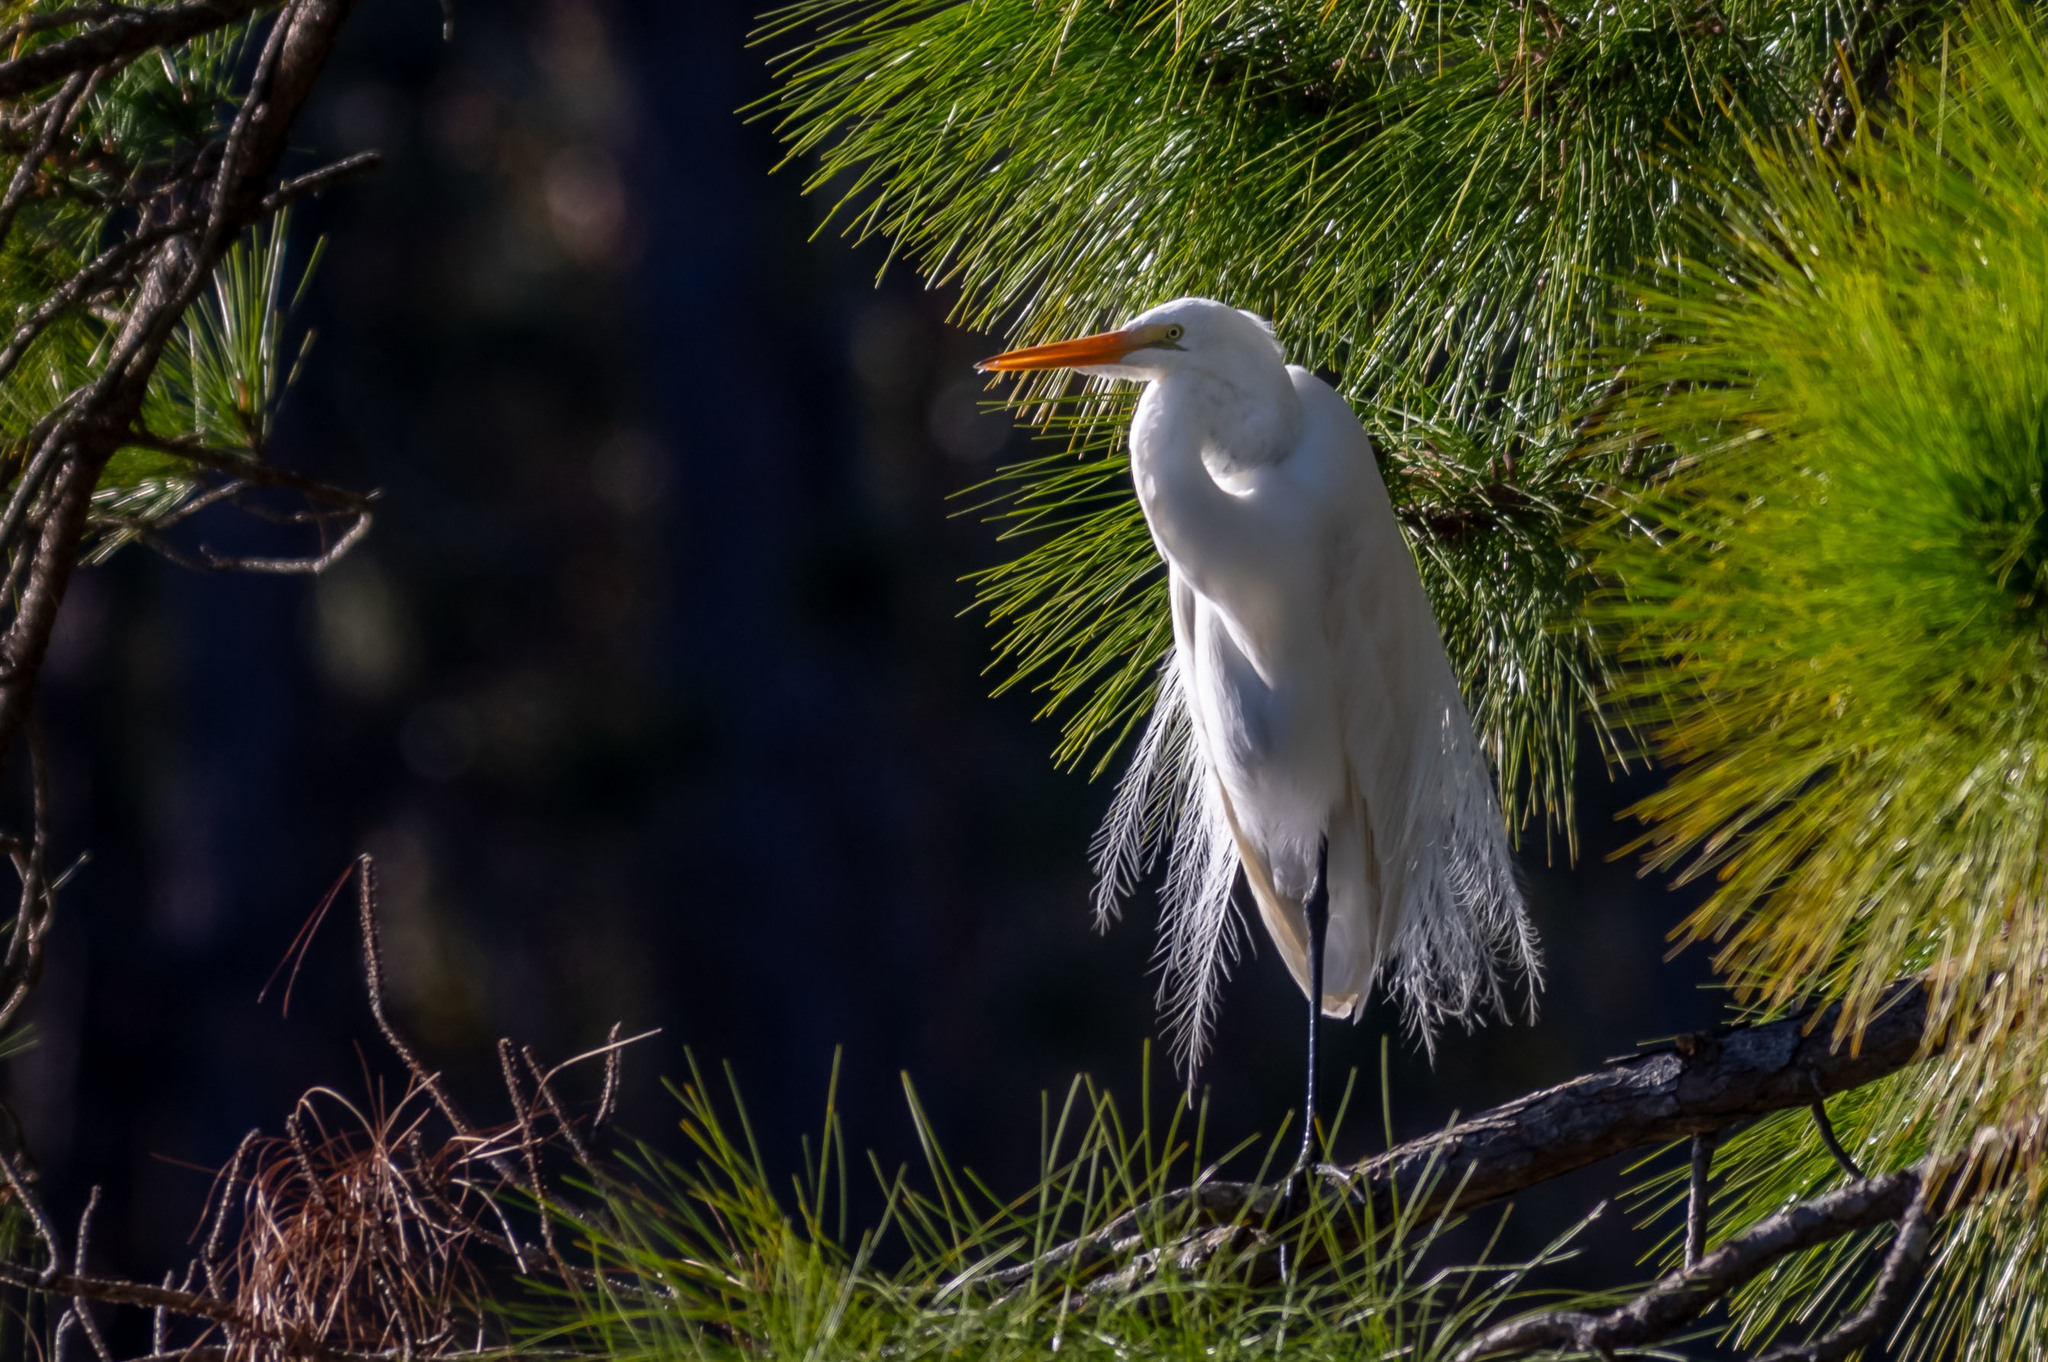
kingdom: Animalia
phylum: Chordata
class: Aves
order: Pelecaniformes
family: Ardeidae
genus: Ardea
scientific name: Ardea alba
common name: Great egret
